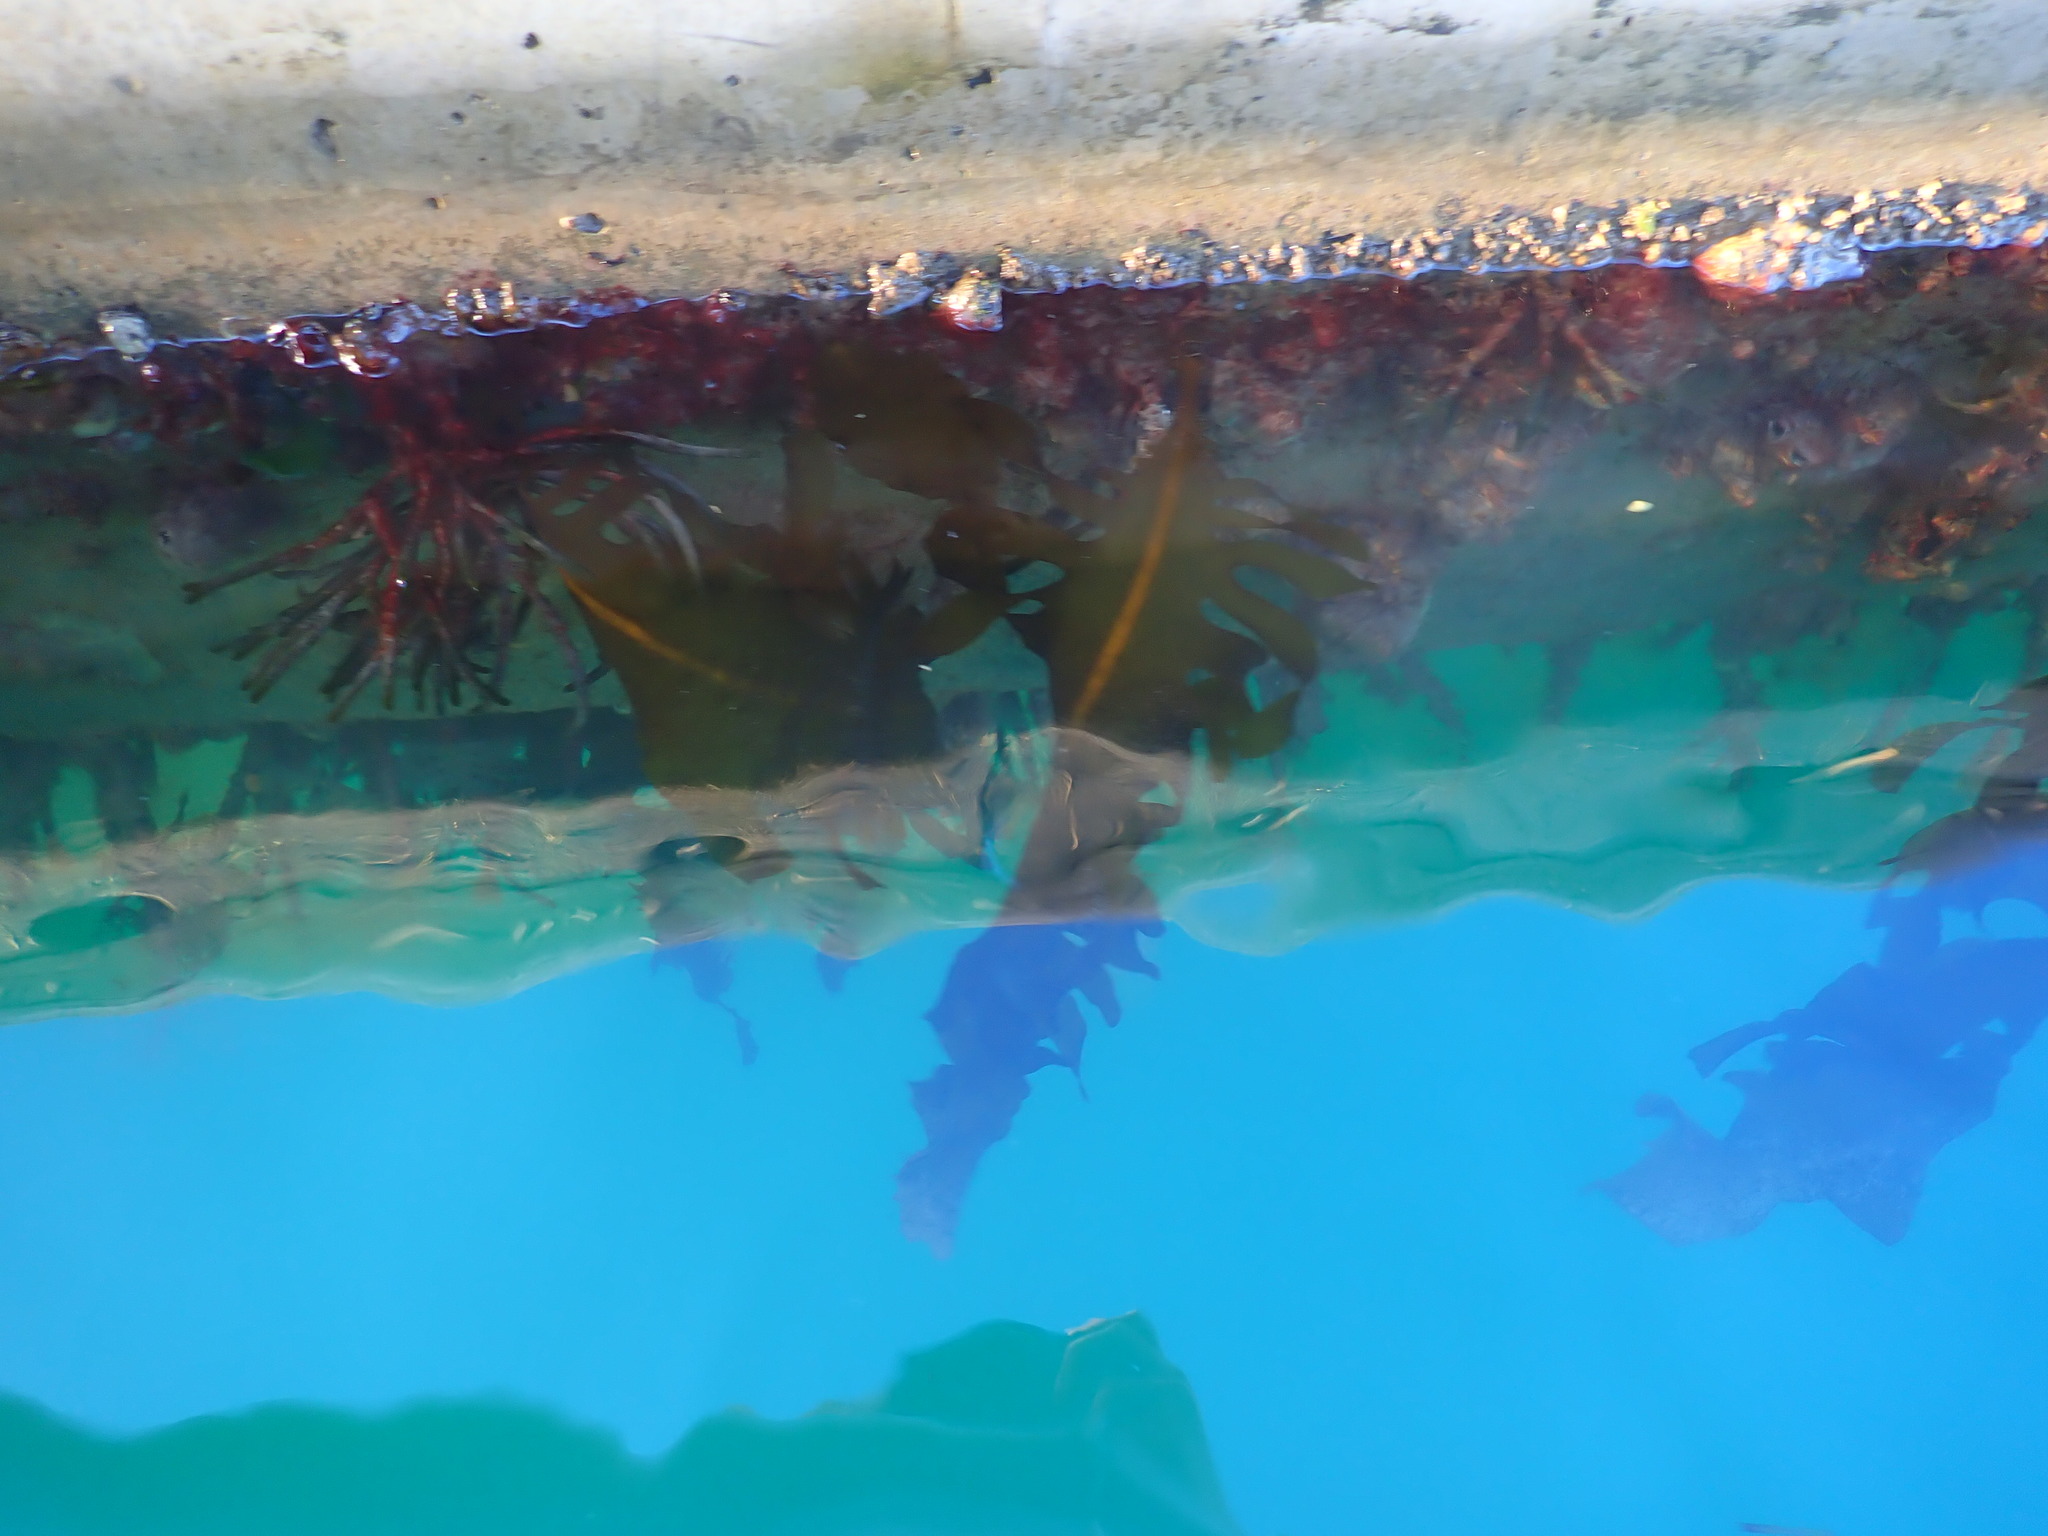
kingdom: Chromista
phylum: Ochrophyta
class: Phaeophyceae
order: Laminariales
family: Alariaceae
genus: Undaria
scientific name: Undaria pinnatifida
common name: Asian kelp
